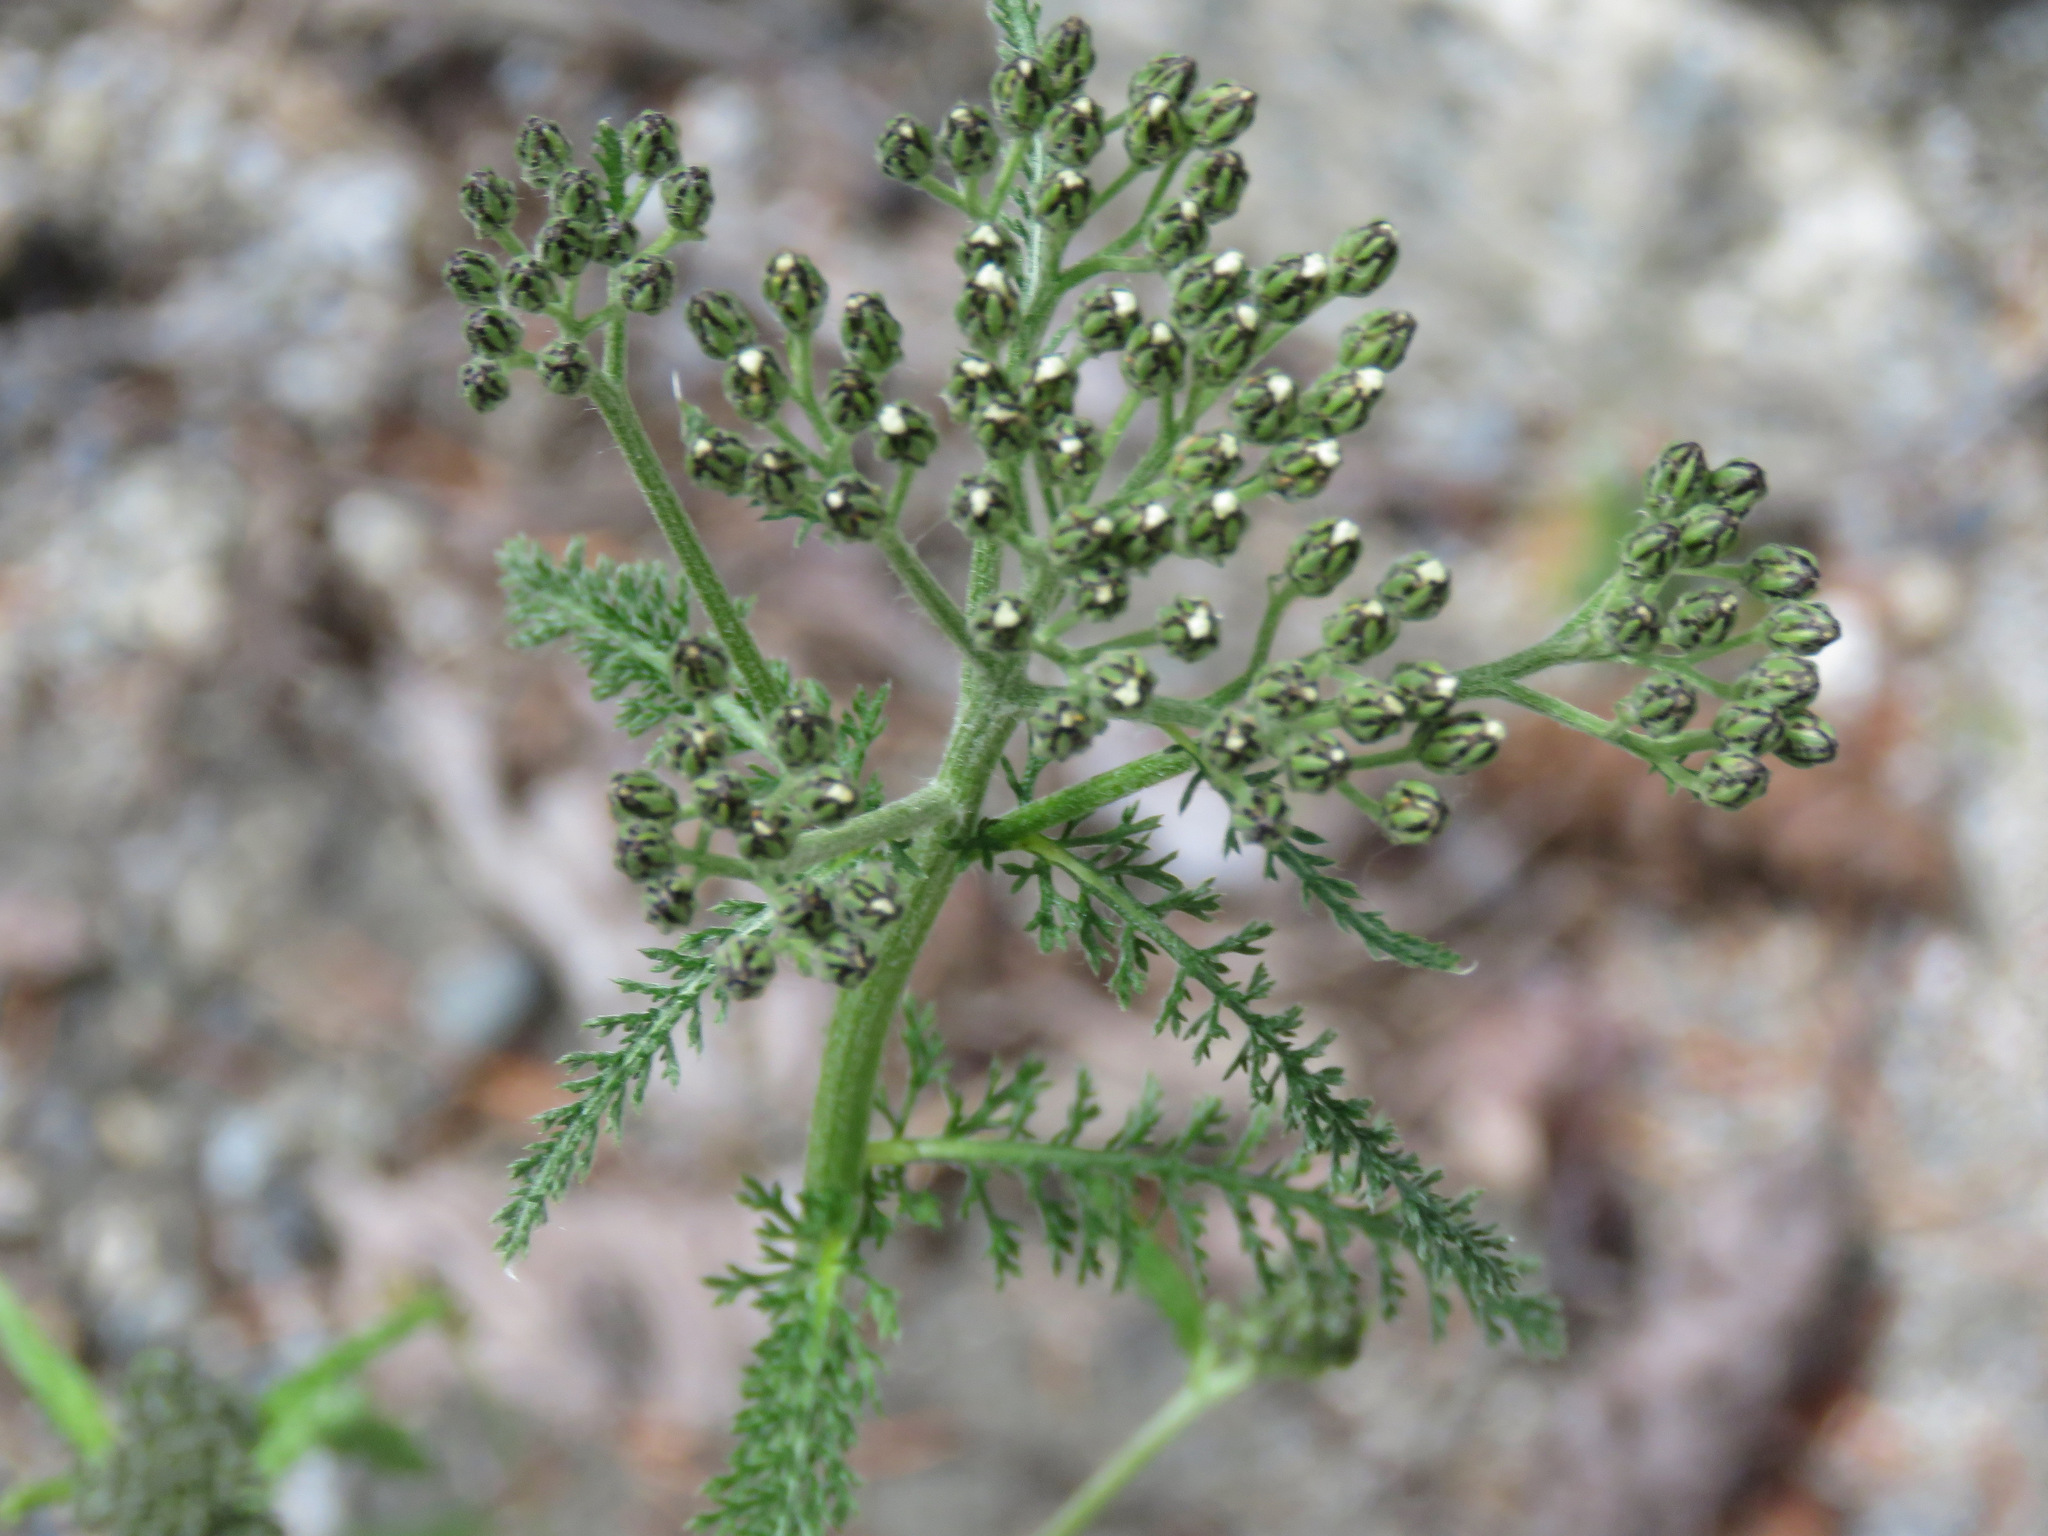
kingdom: Plantae
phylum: Tracheophyta
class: Magnoliopsida
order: Asterales
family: Asteraceae
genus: Achillea
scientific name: Achillea millefolium
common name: Yarrow
